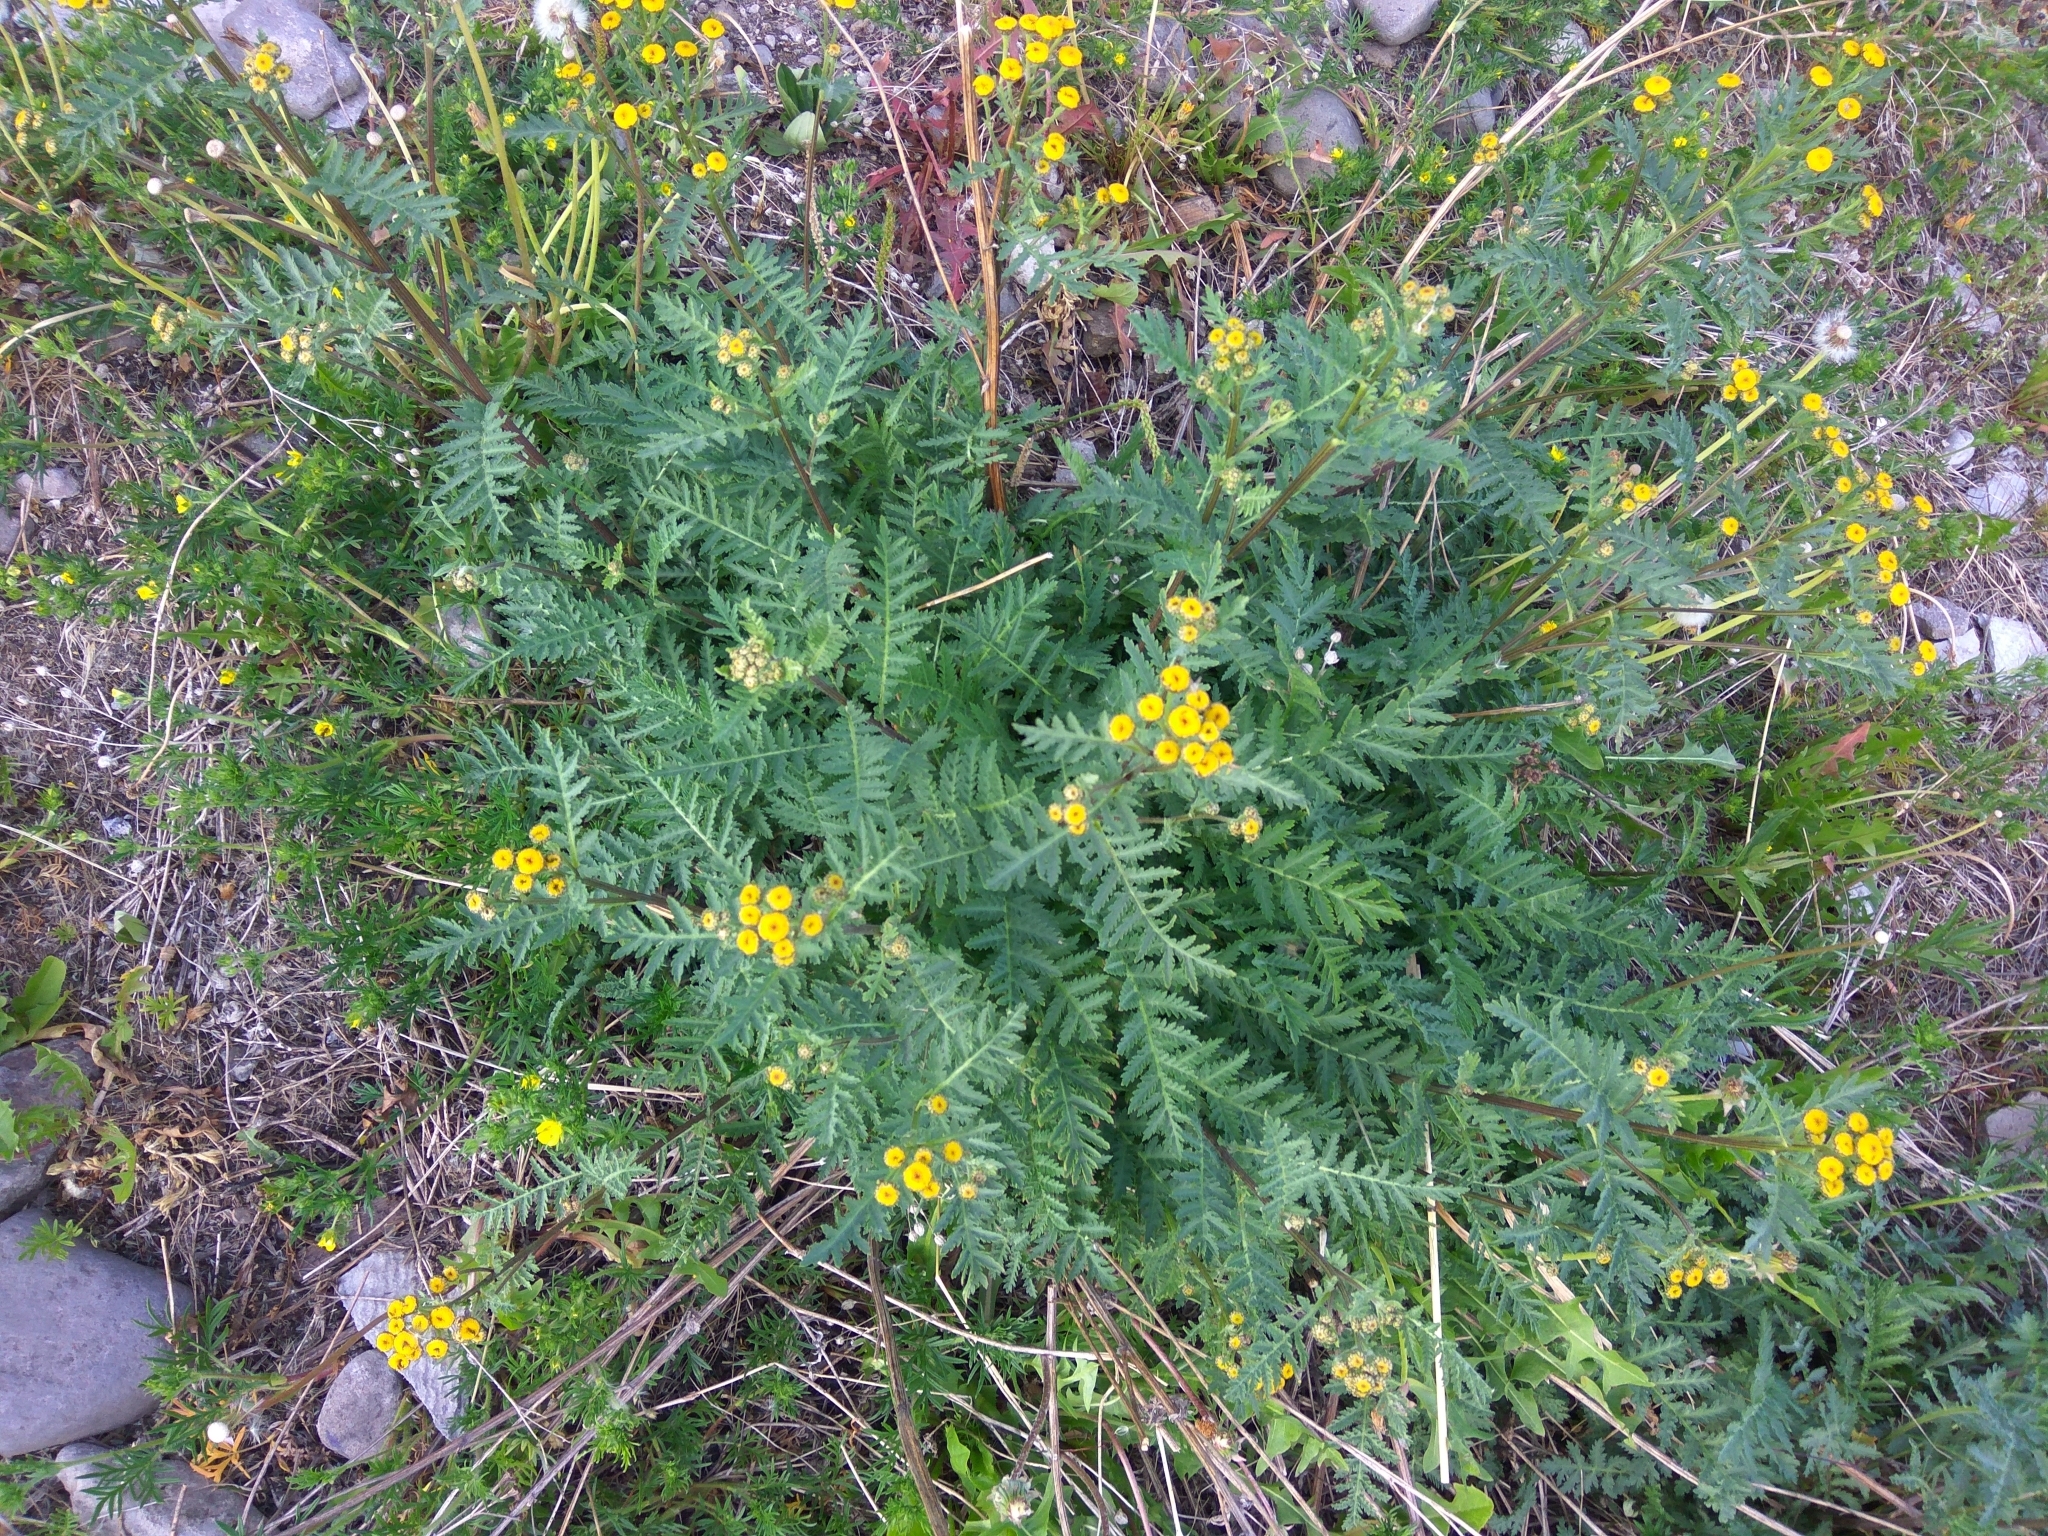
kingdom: Plantae
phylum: Tracheophyta
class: Magnoliopsida
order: Asterales
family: Asteraceae
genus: Tanacetum
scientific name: Tanacetum vulgare
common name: Common tansy
